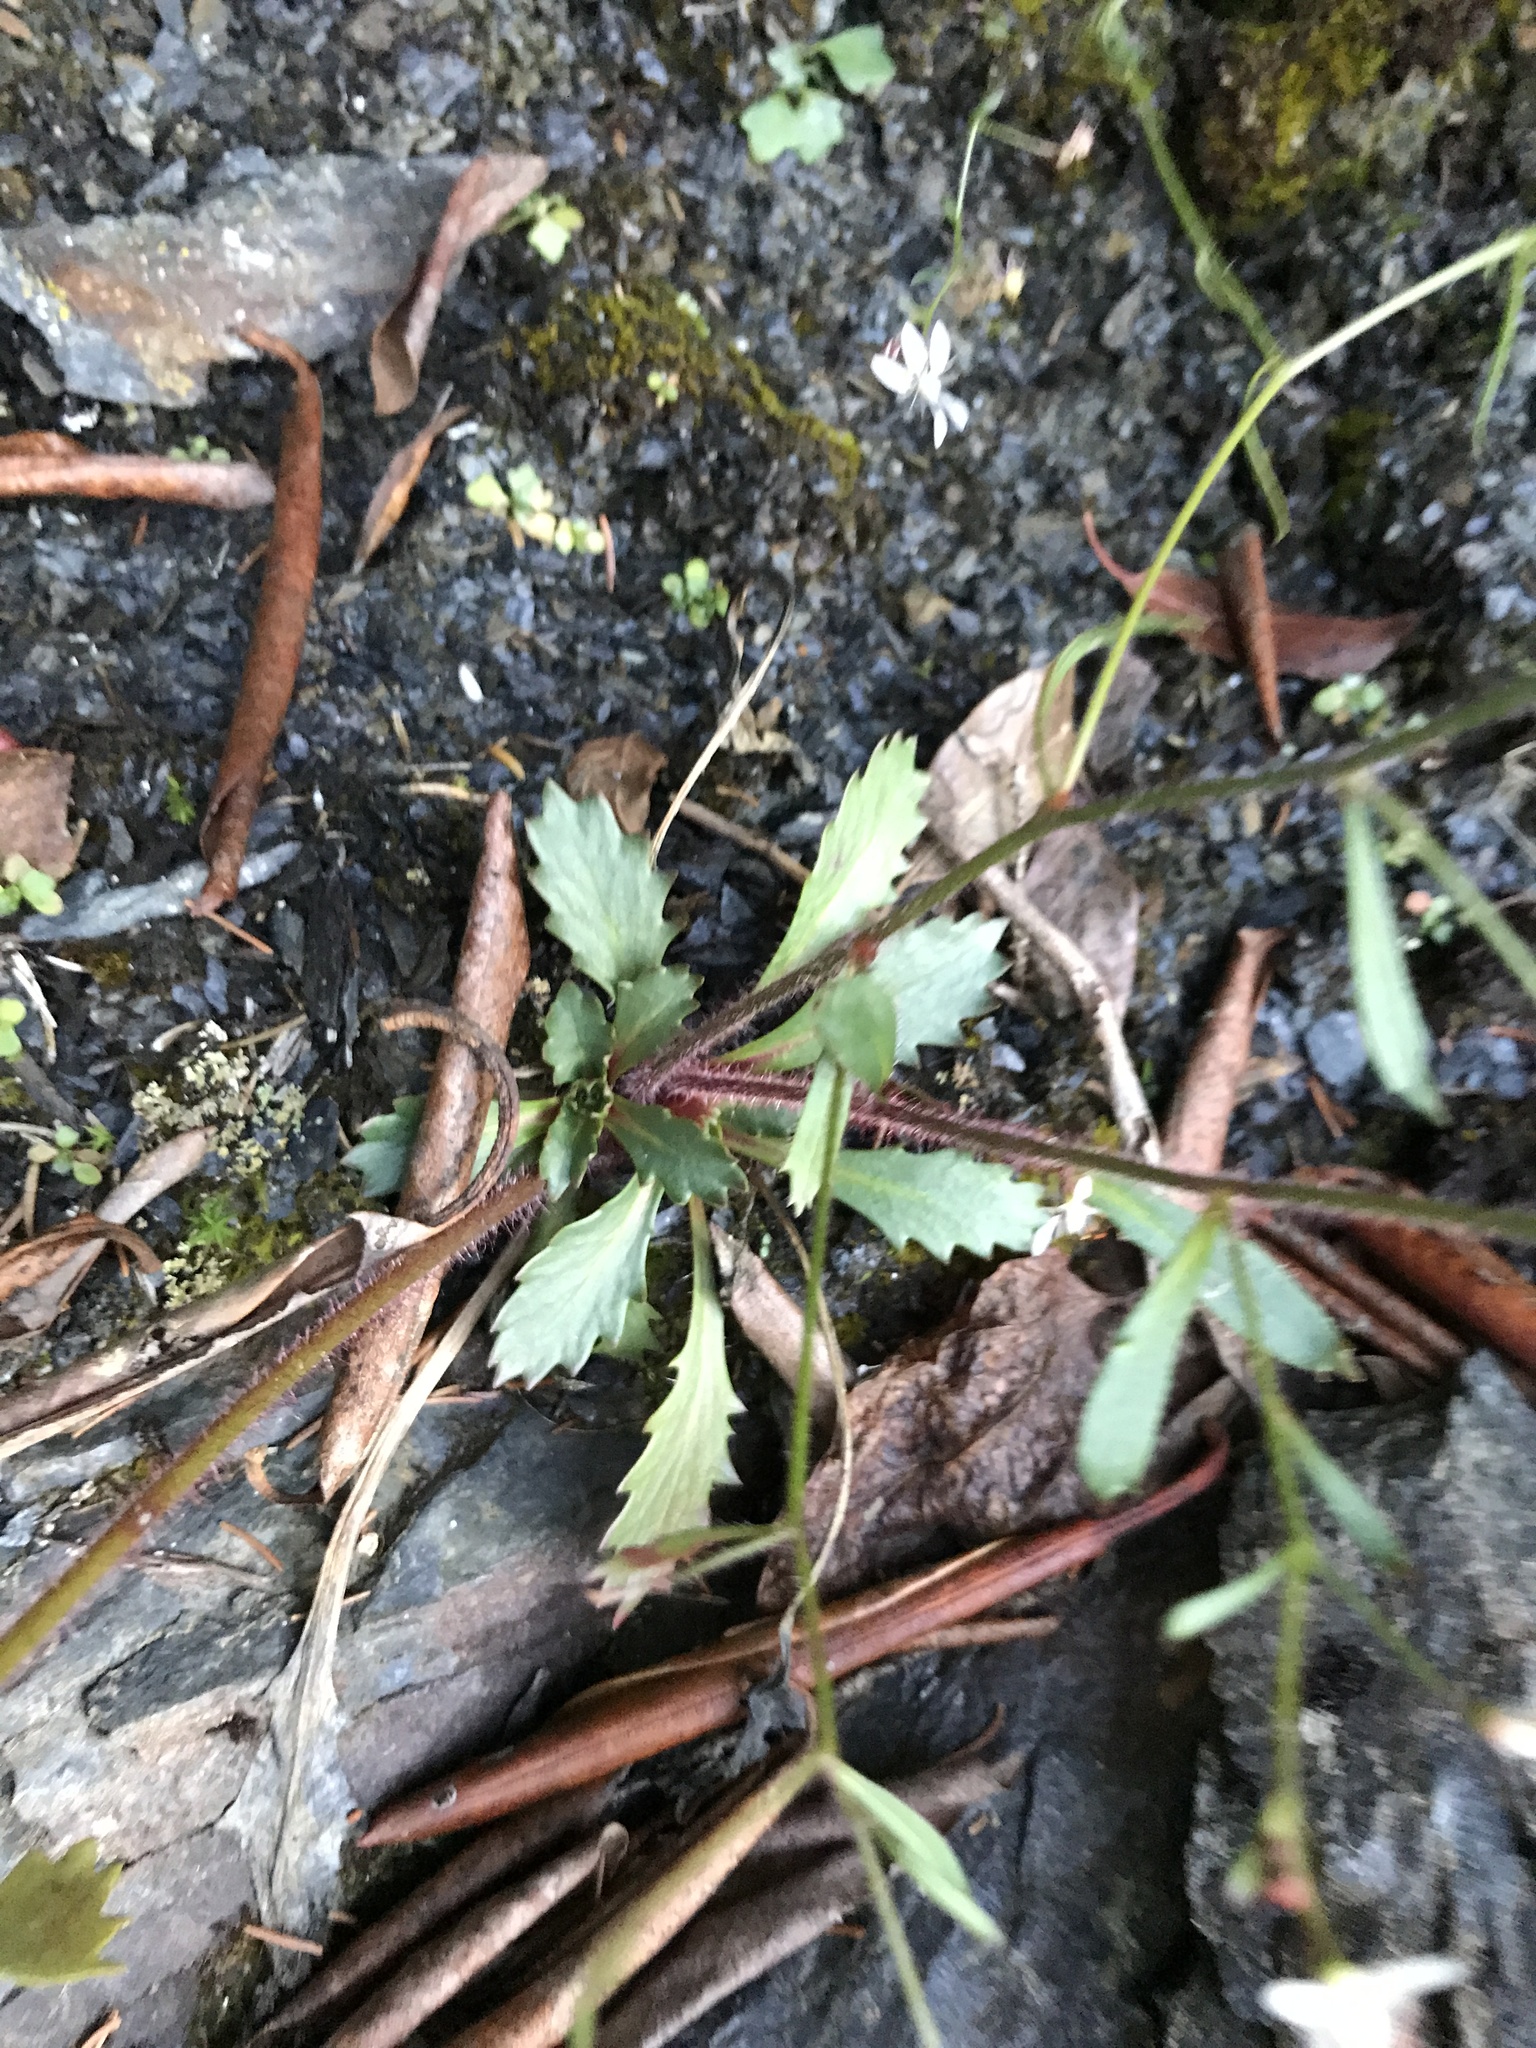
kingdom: Plantae
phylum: Tracheophyta
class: Magnoliopsida
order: Saxifragales
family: Saxifragaceae
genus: Micranthes
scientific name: Micranthes petiolaris
